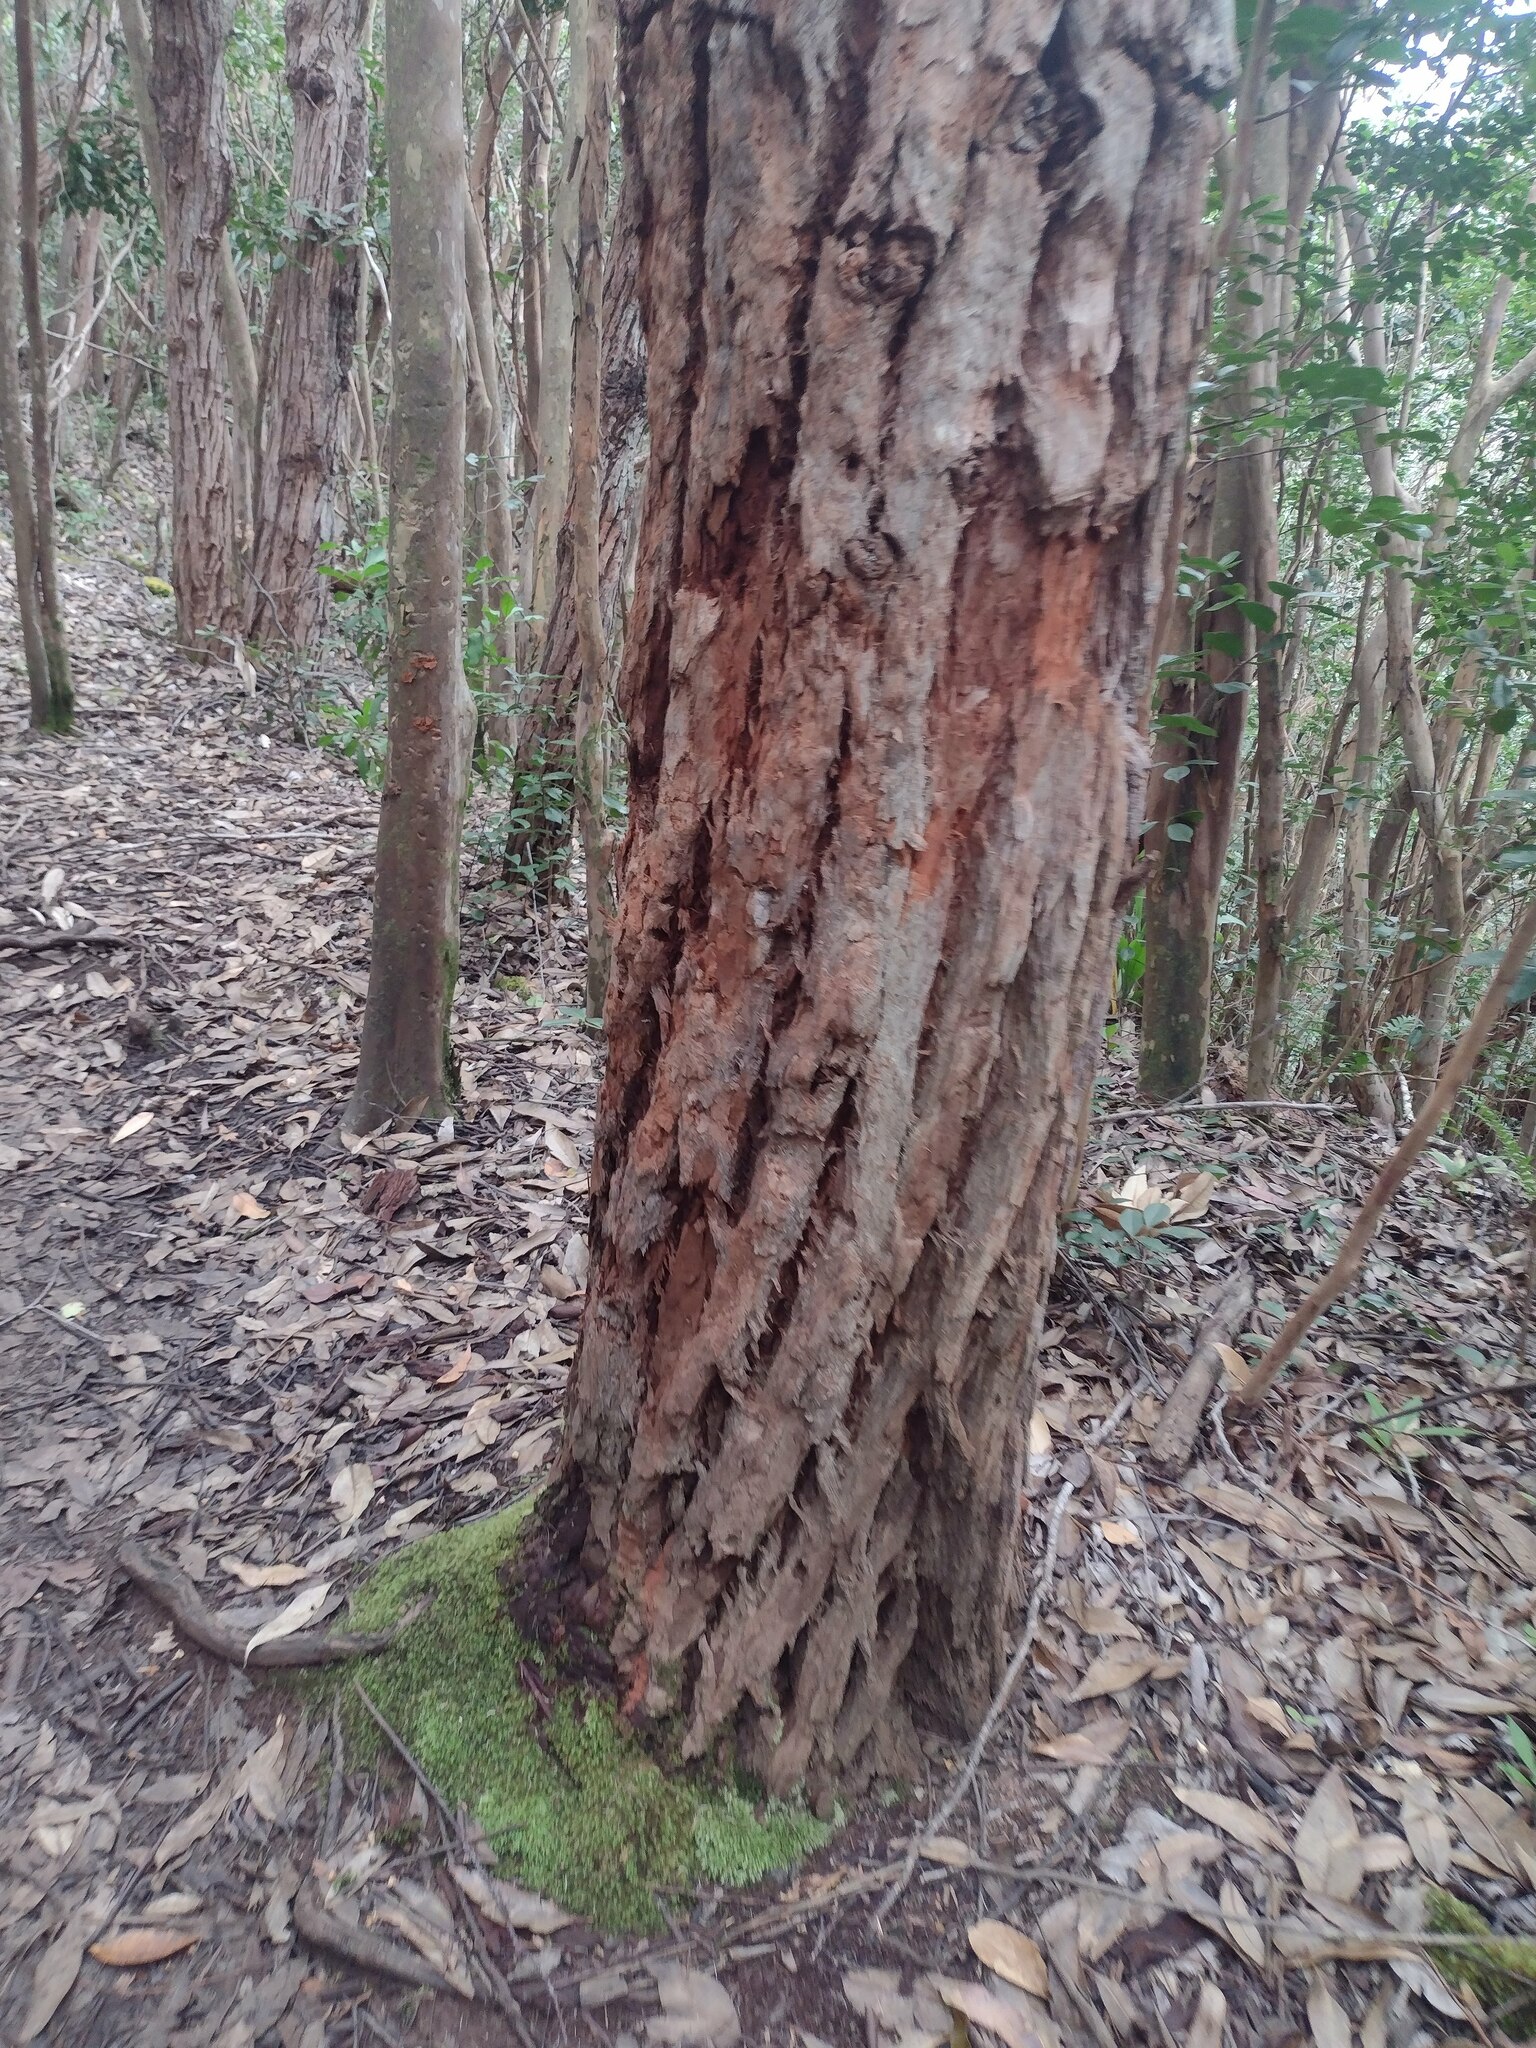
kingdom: Plantae
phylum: Tracheophyta
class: Magnoliopsida
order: Myrtales
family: Myrtaceae
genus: Eucalyptus
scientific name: Eucalyptus robusta
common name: Swampmahogany
